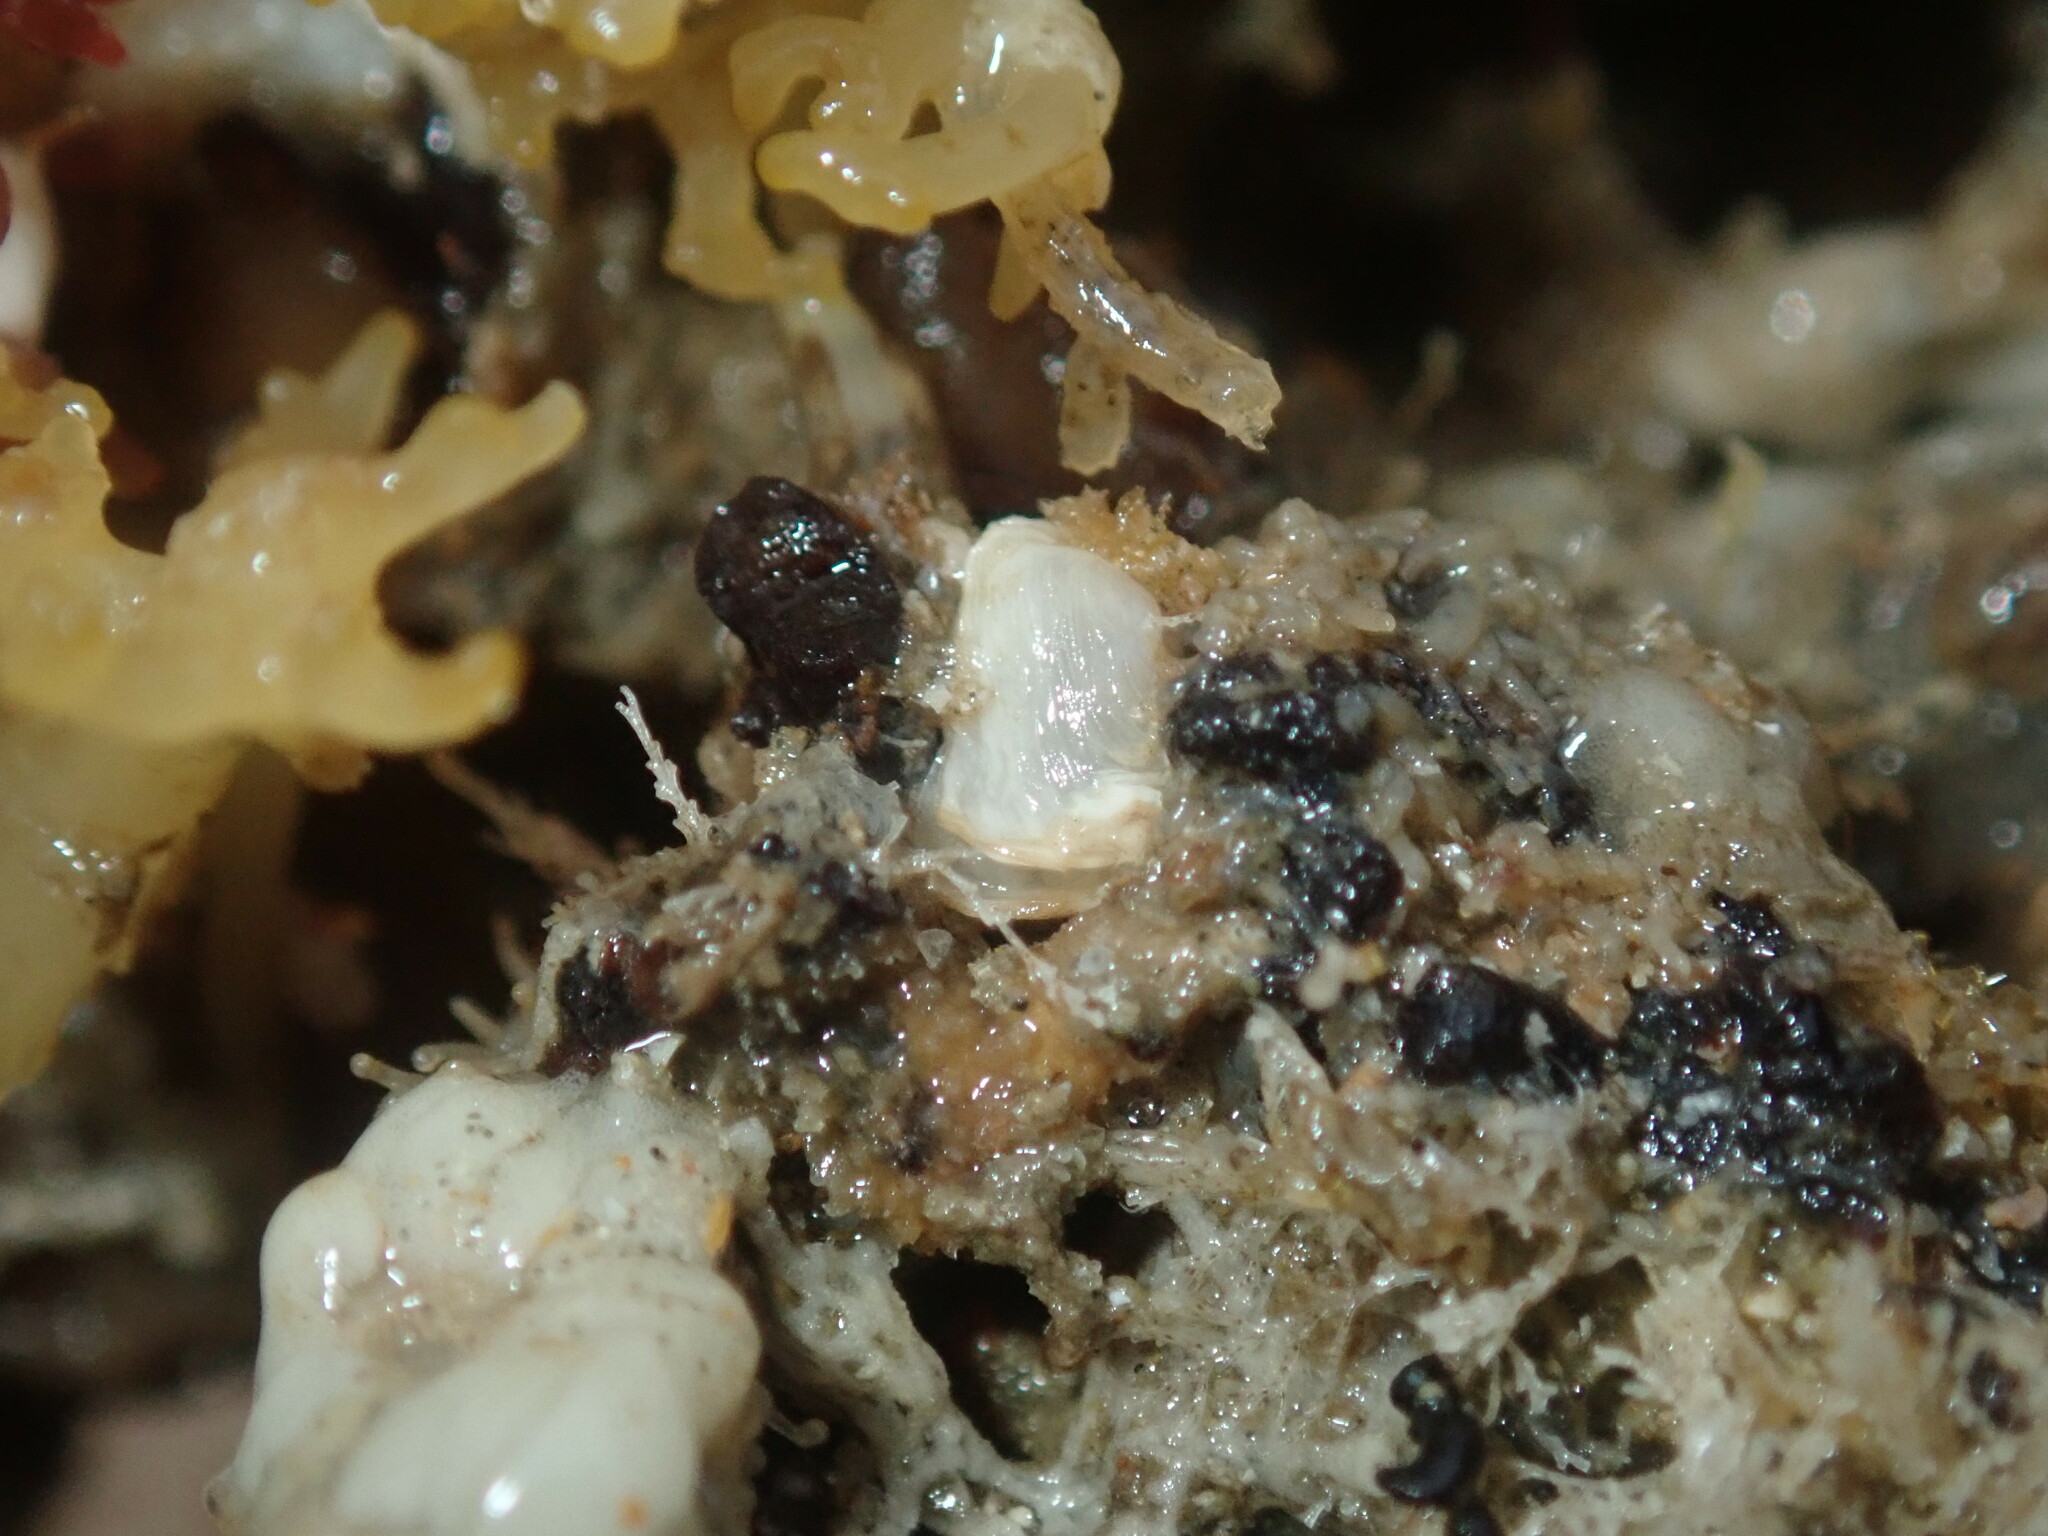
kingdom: Animalia
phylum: Mollusca
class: Bivalvia
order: Adapedonta
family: Hiatellidae
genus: Hiatella
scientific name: Hiatella australis
